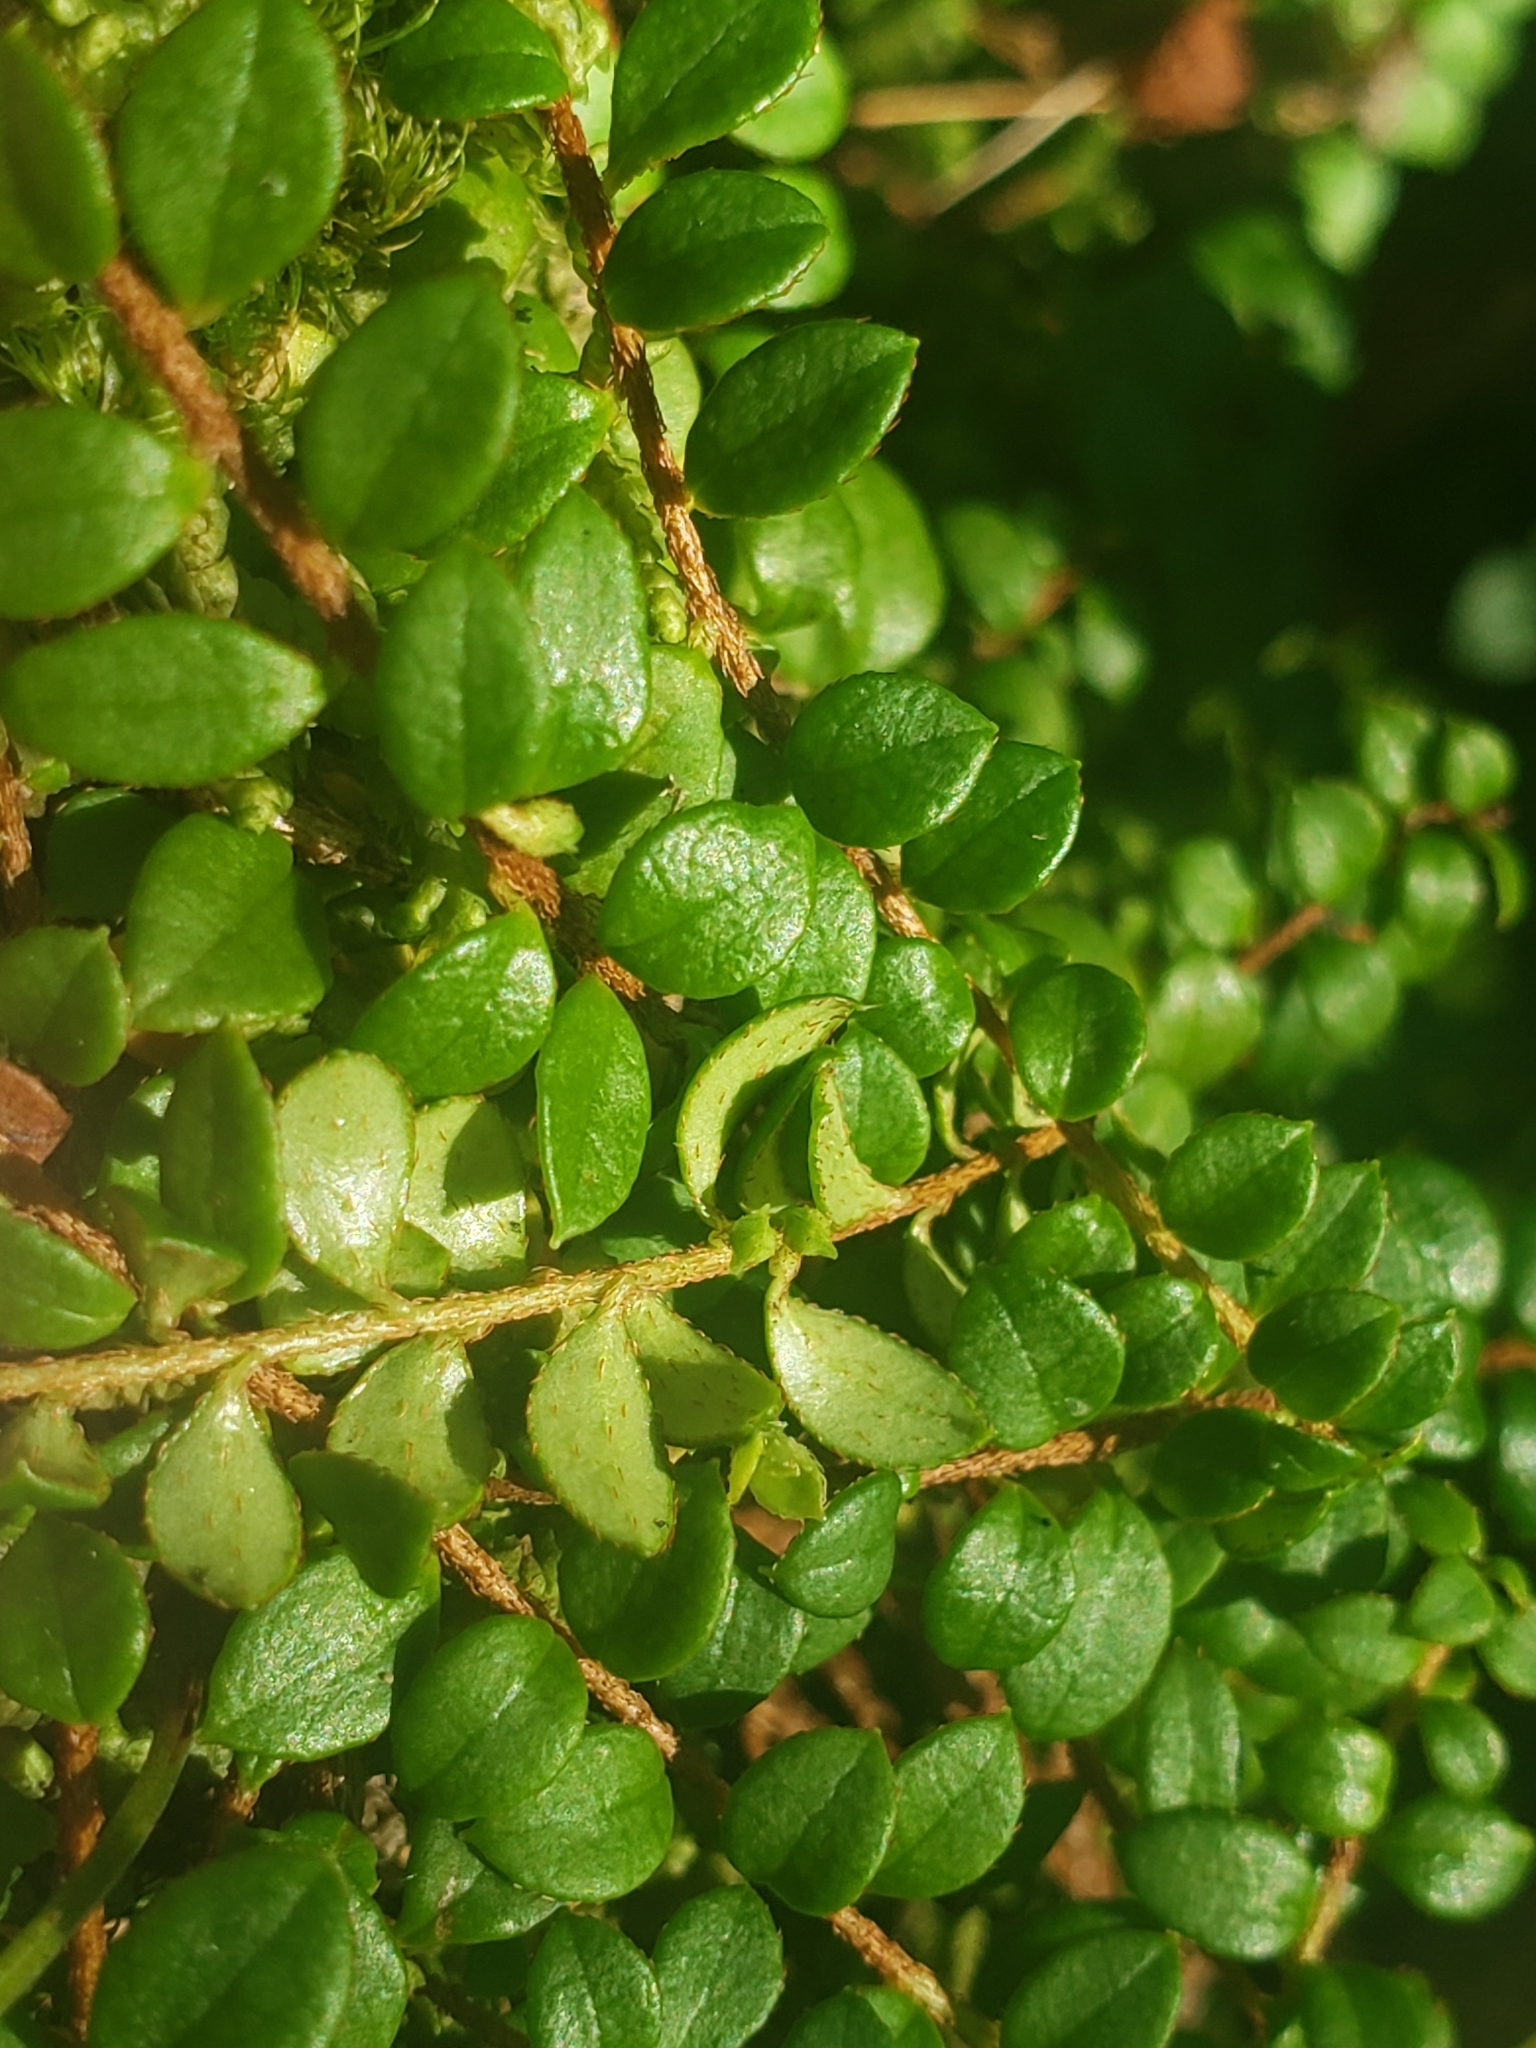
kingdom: Plantae
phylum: Tracheophyta
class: Magnoliopsida
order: Ericales
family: Ericaceae
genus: Gaultheria
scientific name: Gaultheria hispidula
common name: Cancer wintergreen
